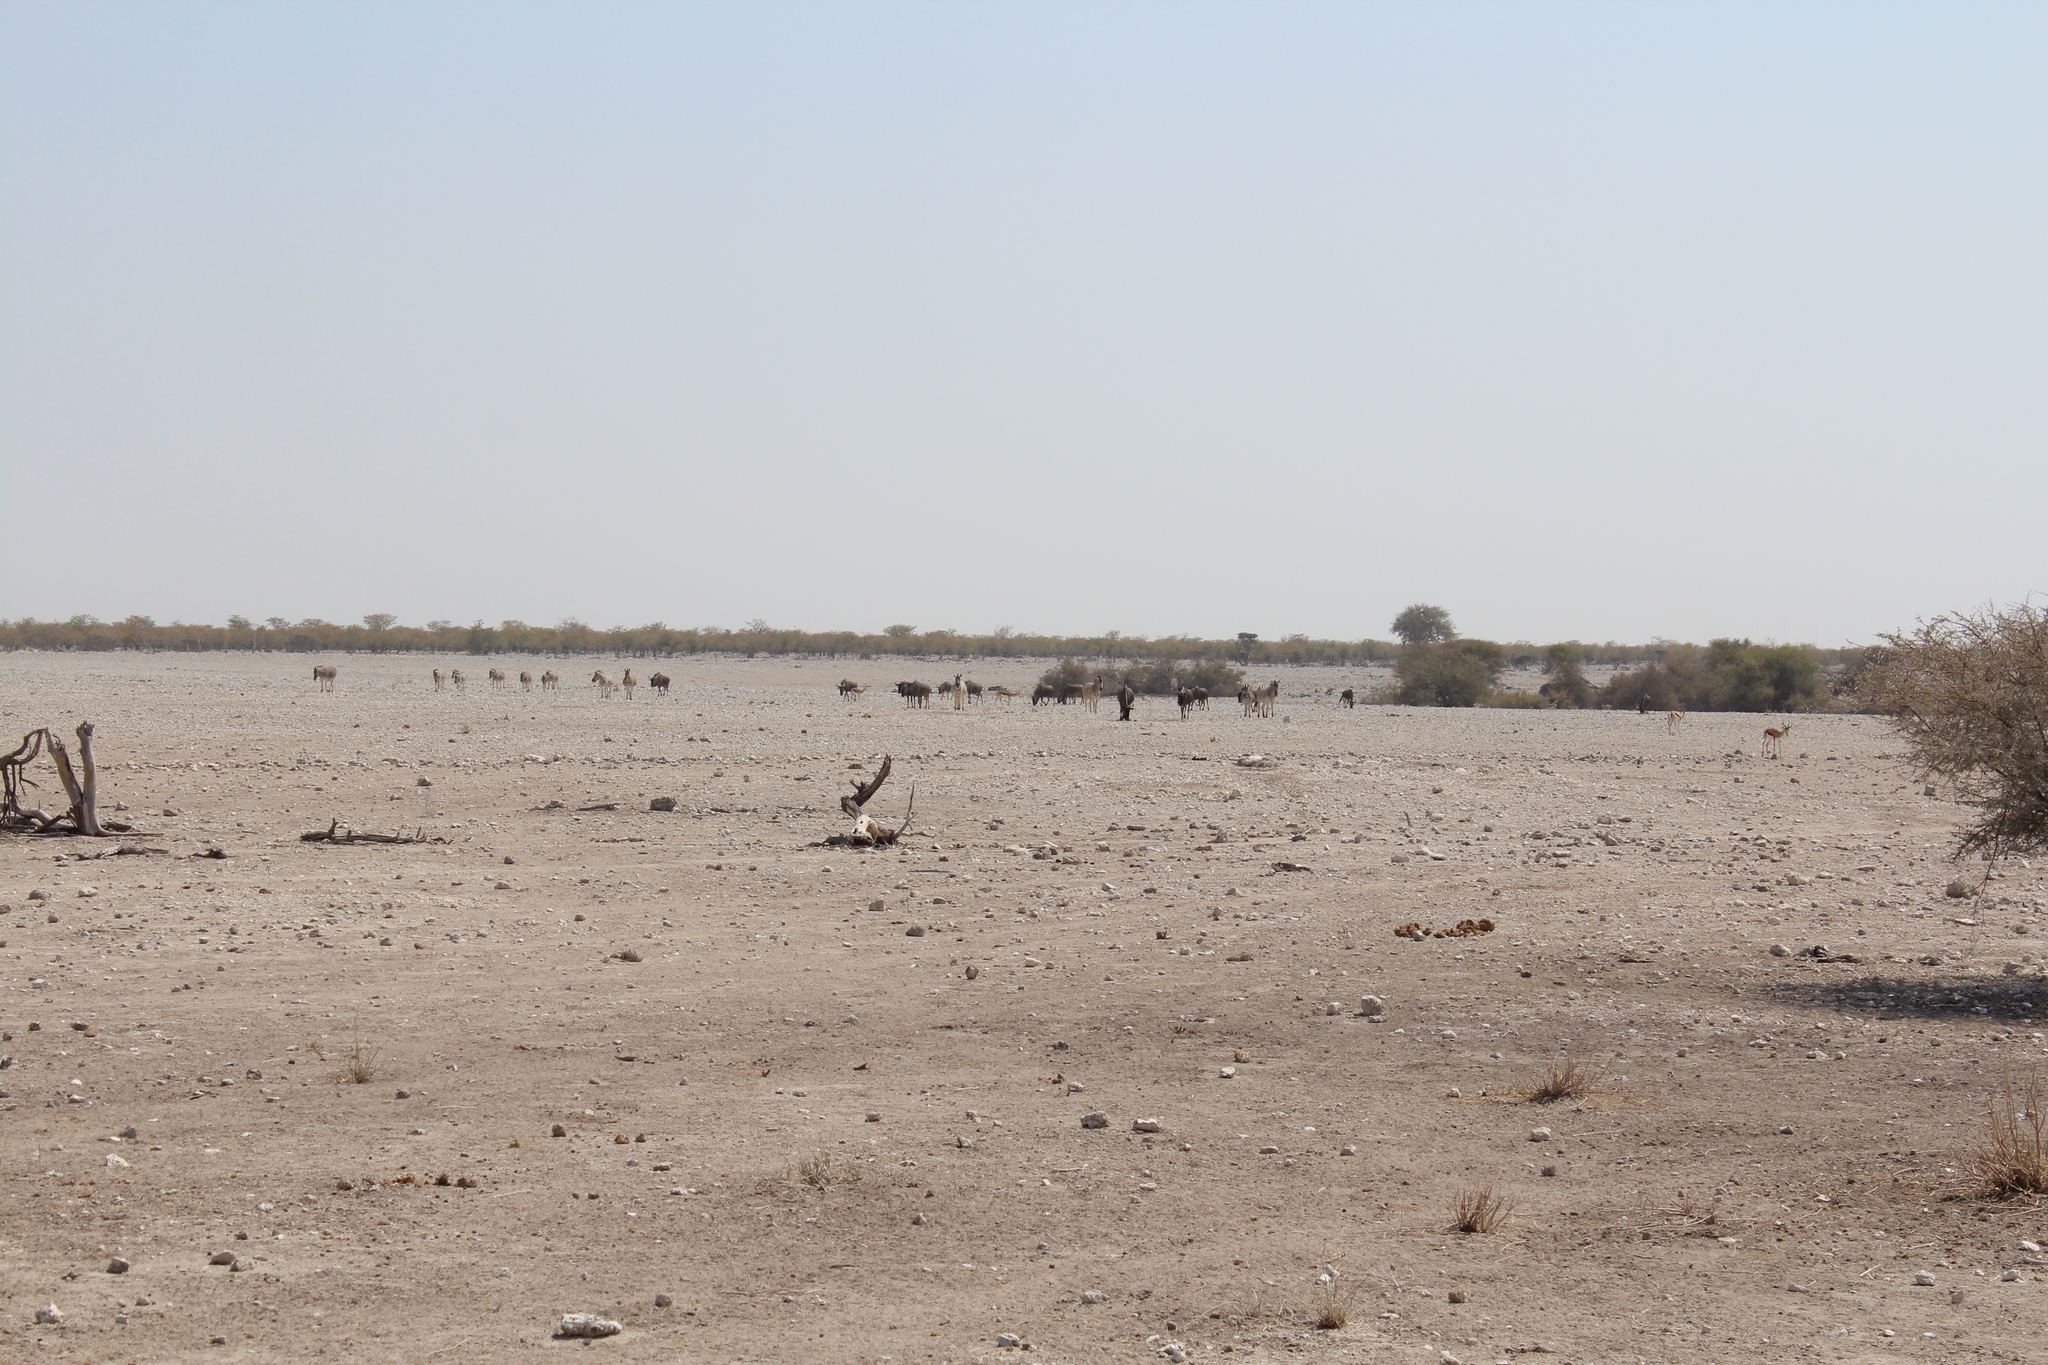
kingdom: Animalia
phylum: Chordata
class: Mammalia
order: Artiodactyla
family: Bovidae
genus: Connochaetes
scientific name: Connochaetes taurinus
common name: Blue wildebeest
